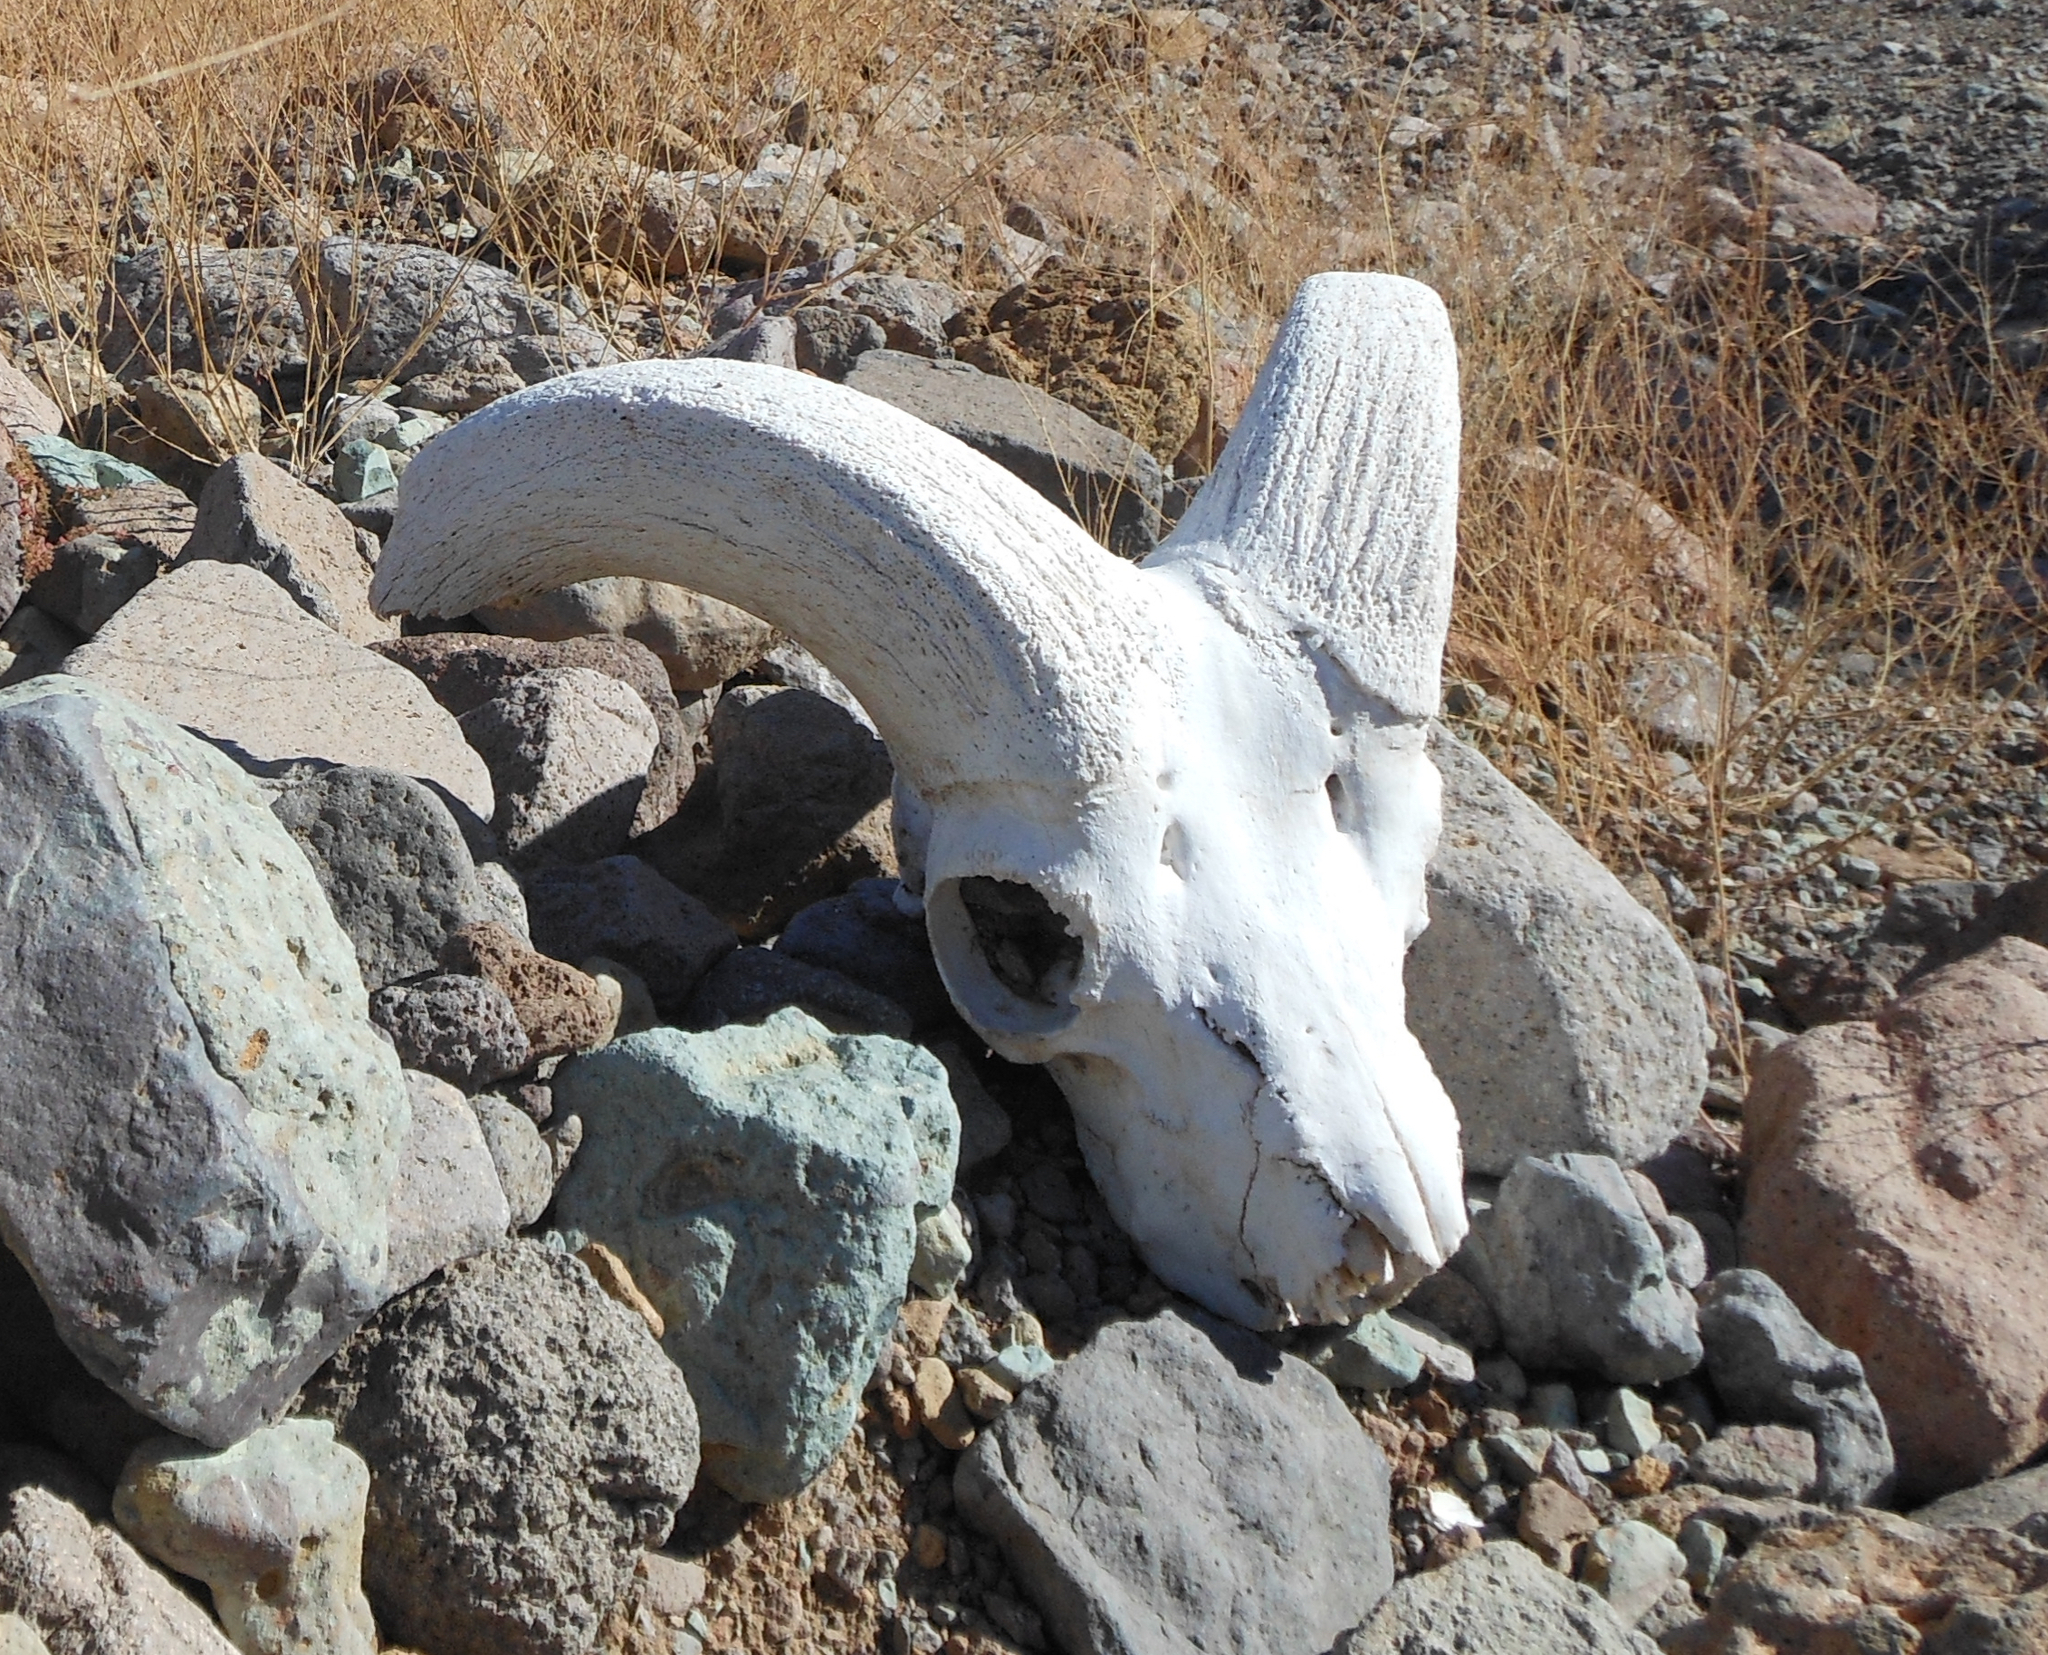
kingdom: Animalia
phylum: Chordata
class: Mammalia
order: Artiodactyla
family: Bovidae
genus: Ovis
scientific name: Ovis canadensis
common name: Bighorn sheep
